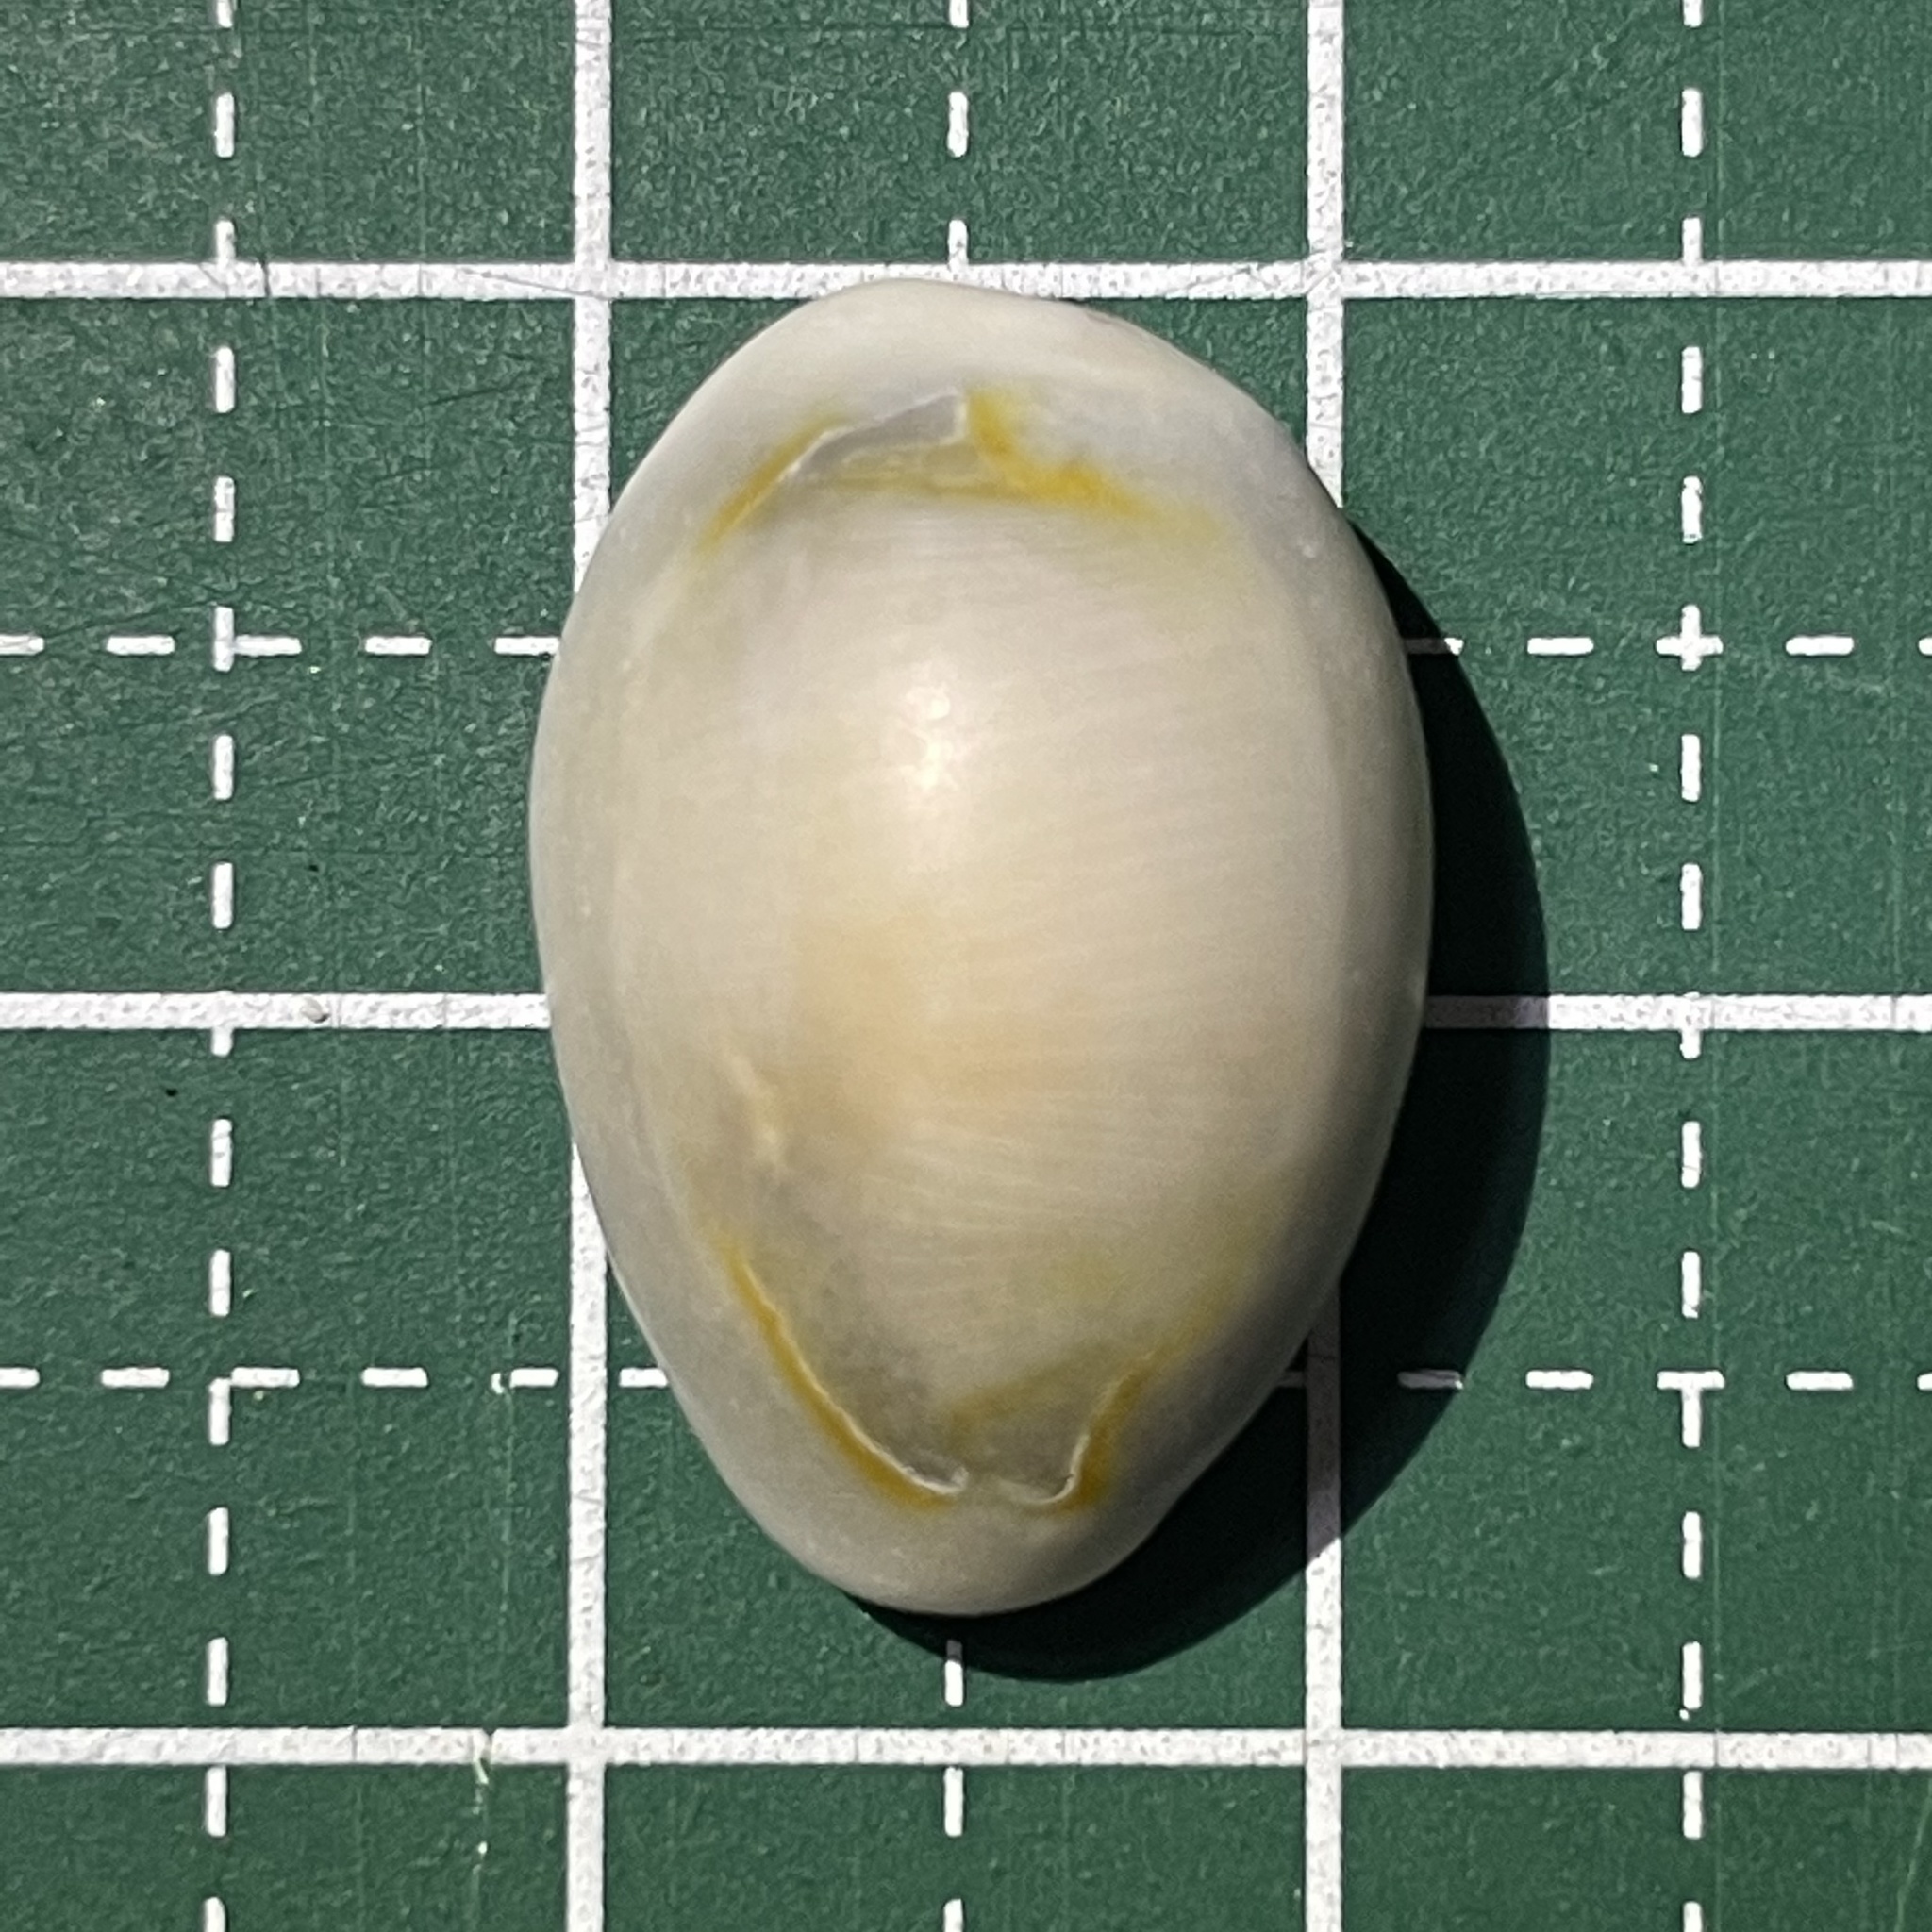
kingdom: Animalia
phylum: Mollusca
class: Gastropoda
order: Littorinimorpha
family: Cypraeidae
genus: Monetaria
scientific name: Monetaria annulus
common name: Ring cowrie
